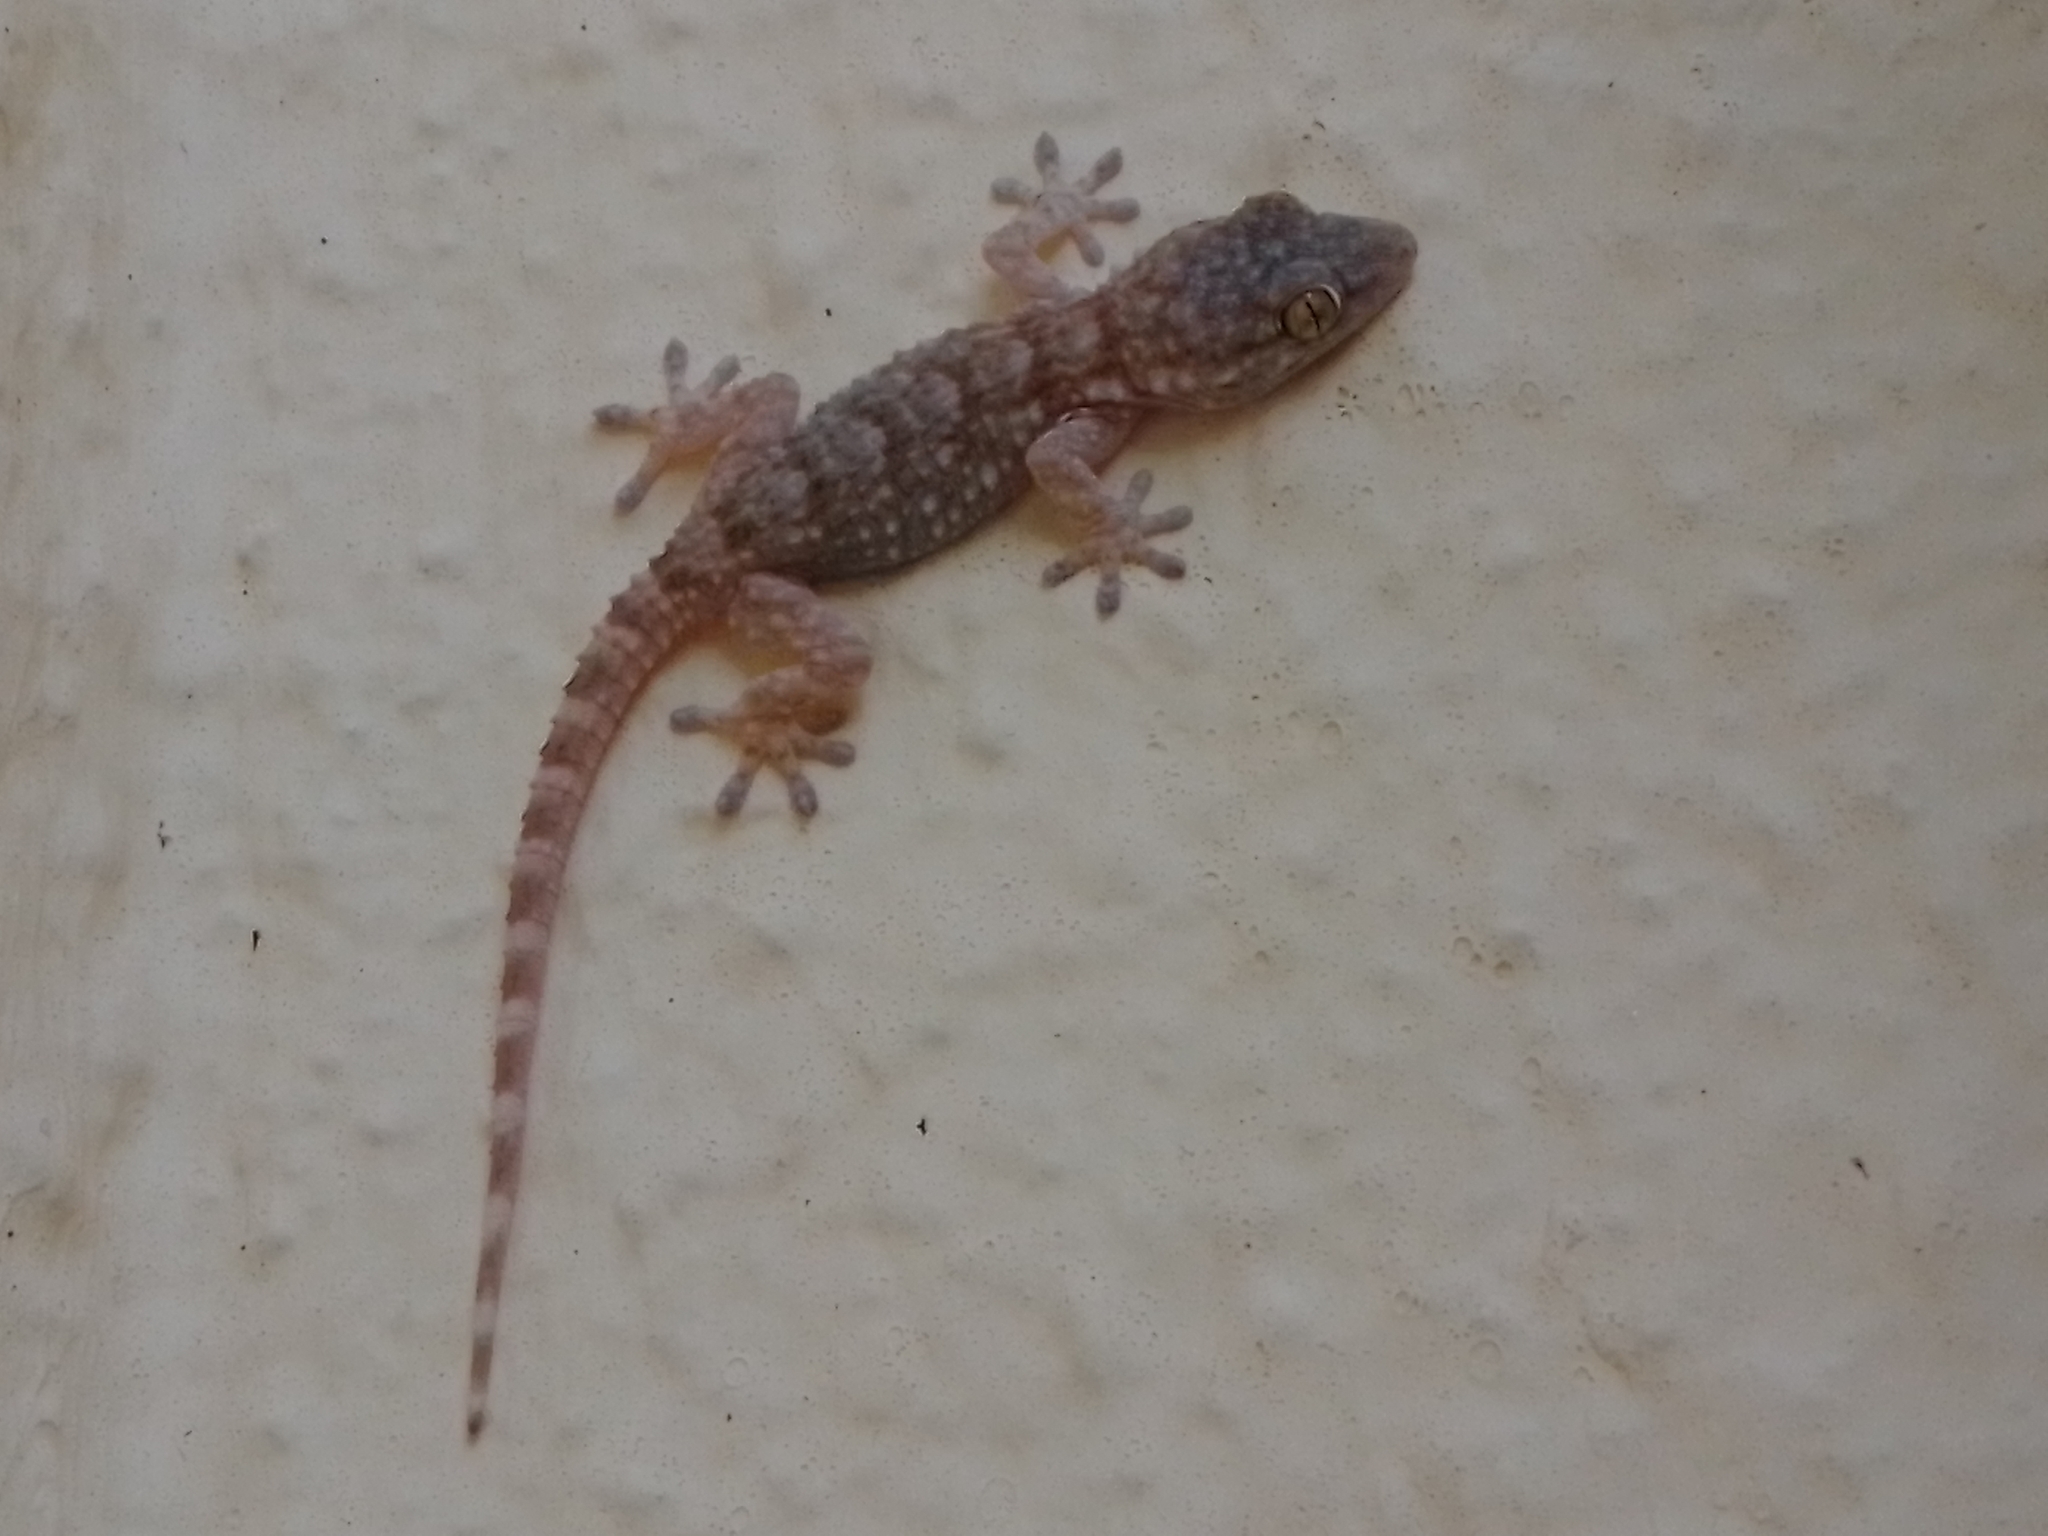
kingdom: Animalia
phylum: Chordata
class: Squamata
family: Phyllodactylidae
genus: Tarentola
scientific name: Tarentola mauritanica
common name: Moorish gecko
